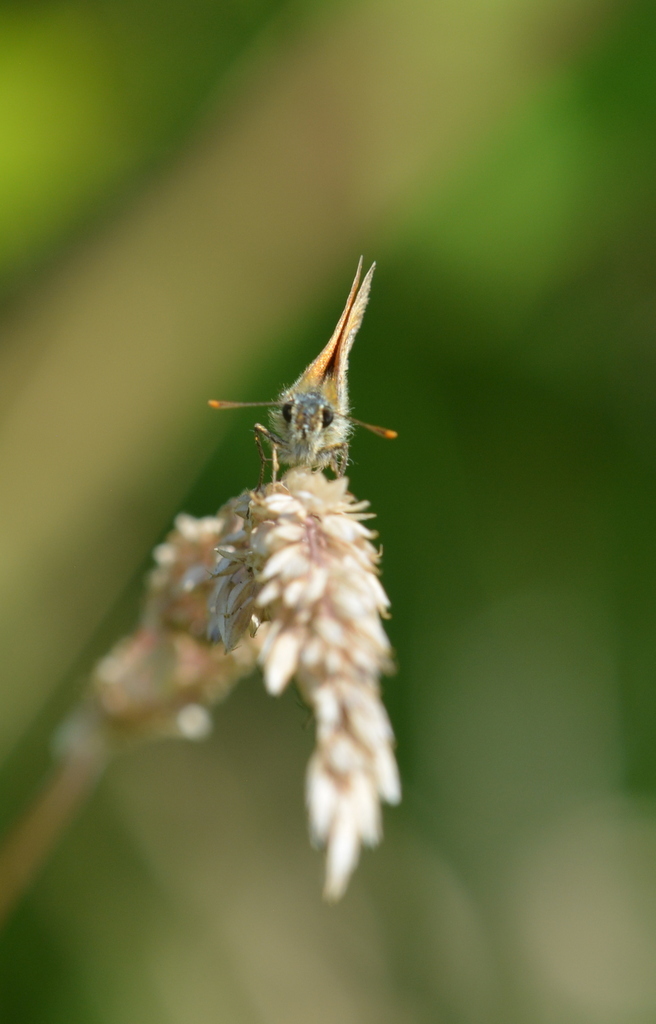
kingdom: Animalia
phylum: Arthropoda
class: Insecta
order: Lepidoptera
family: Hesperiidae
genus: Thymelicus
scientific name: Thymelicus sylvestris
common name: Small skipper
